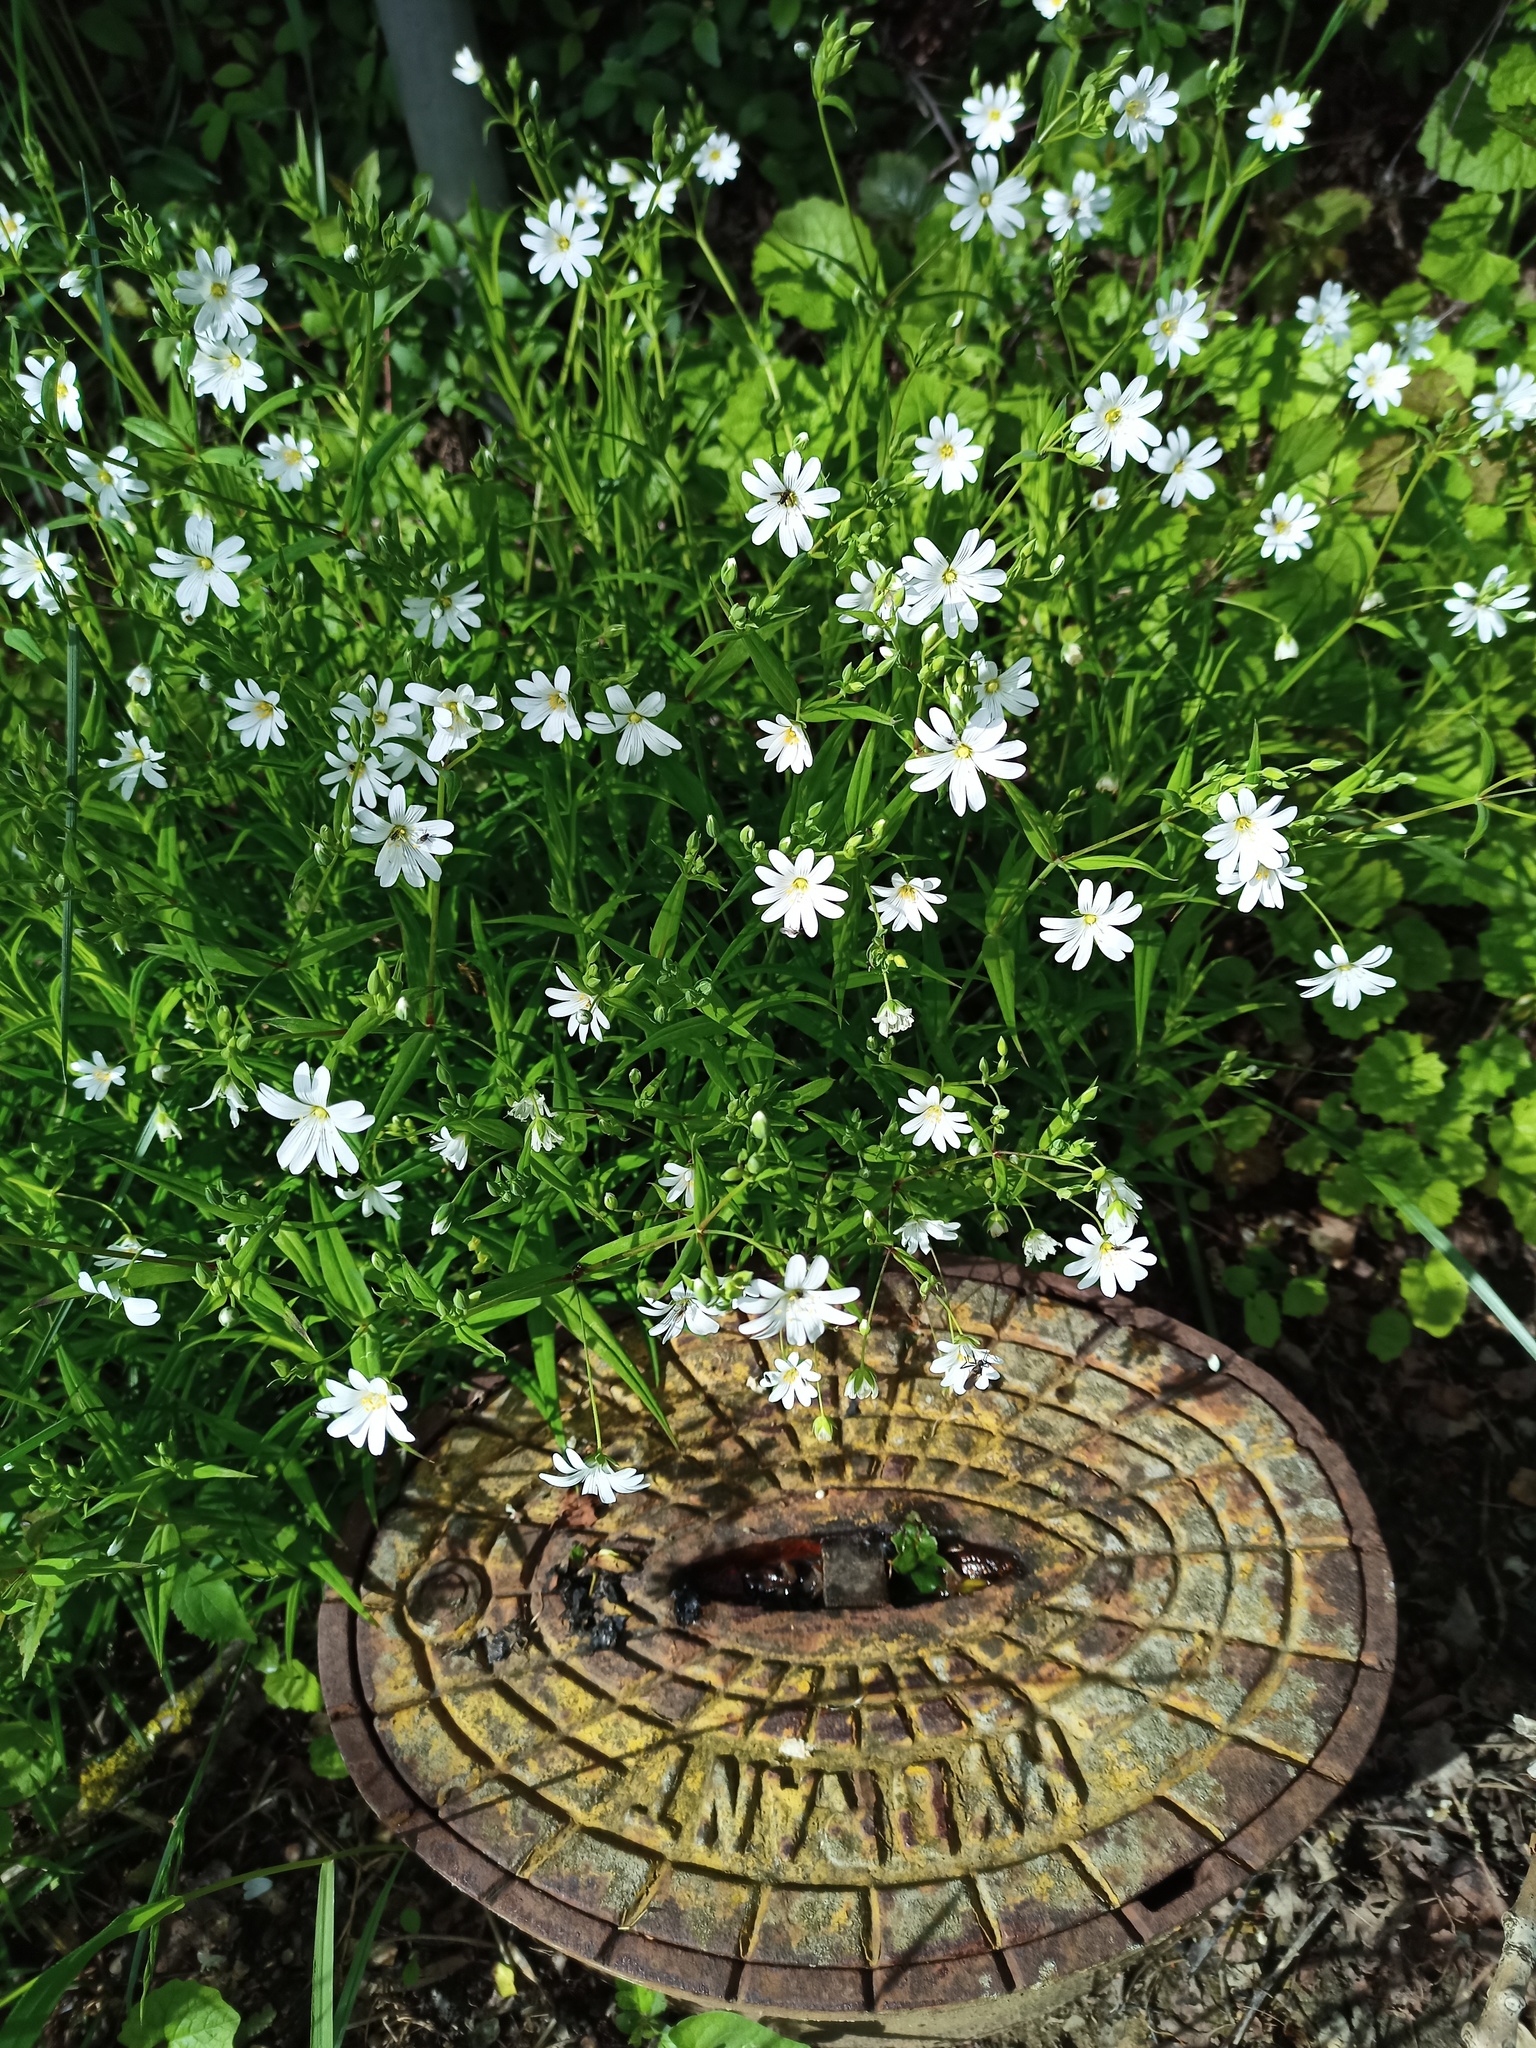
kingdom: Plantae
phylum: Tracheophyta
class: Magnoliopsida
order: Caryophyllales
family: Caryophyllaceae
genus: Rabelera
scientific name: Rabelera holostea
